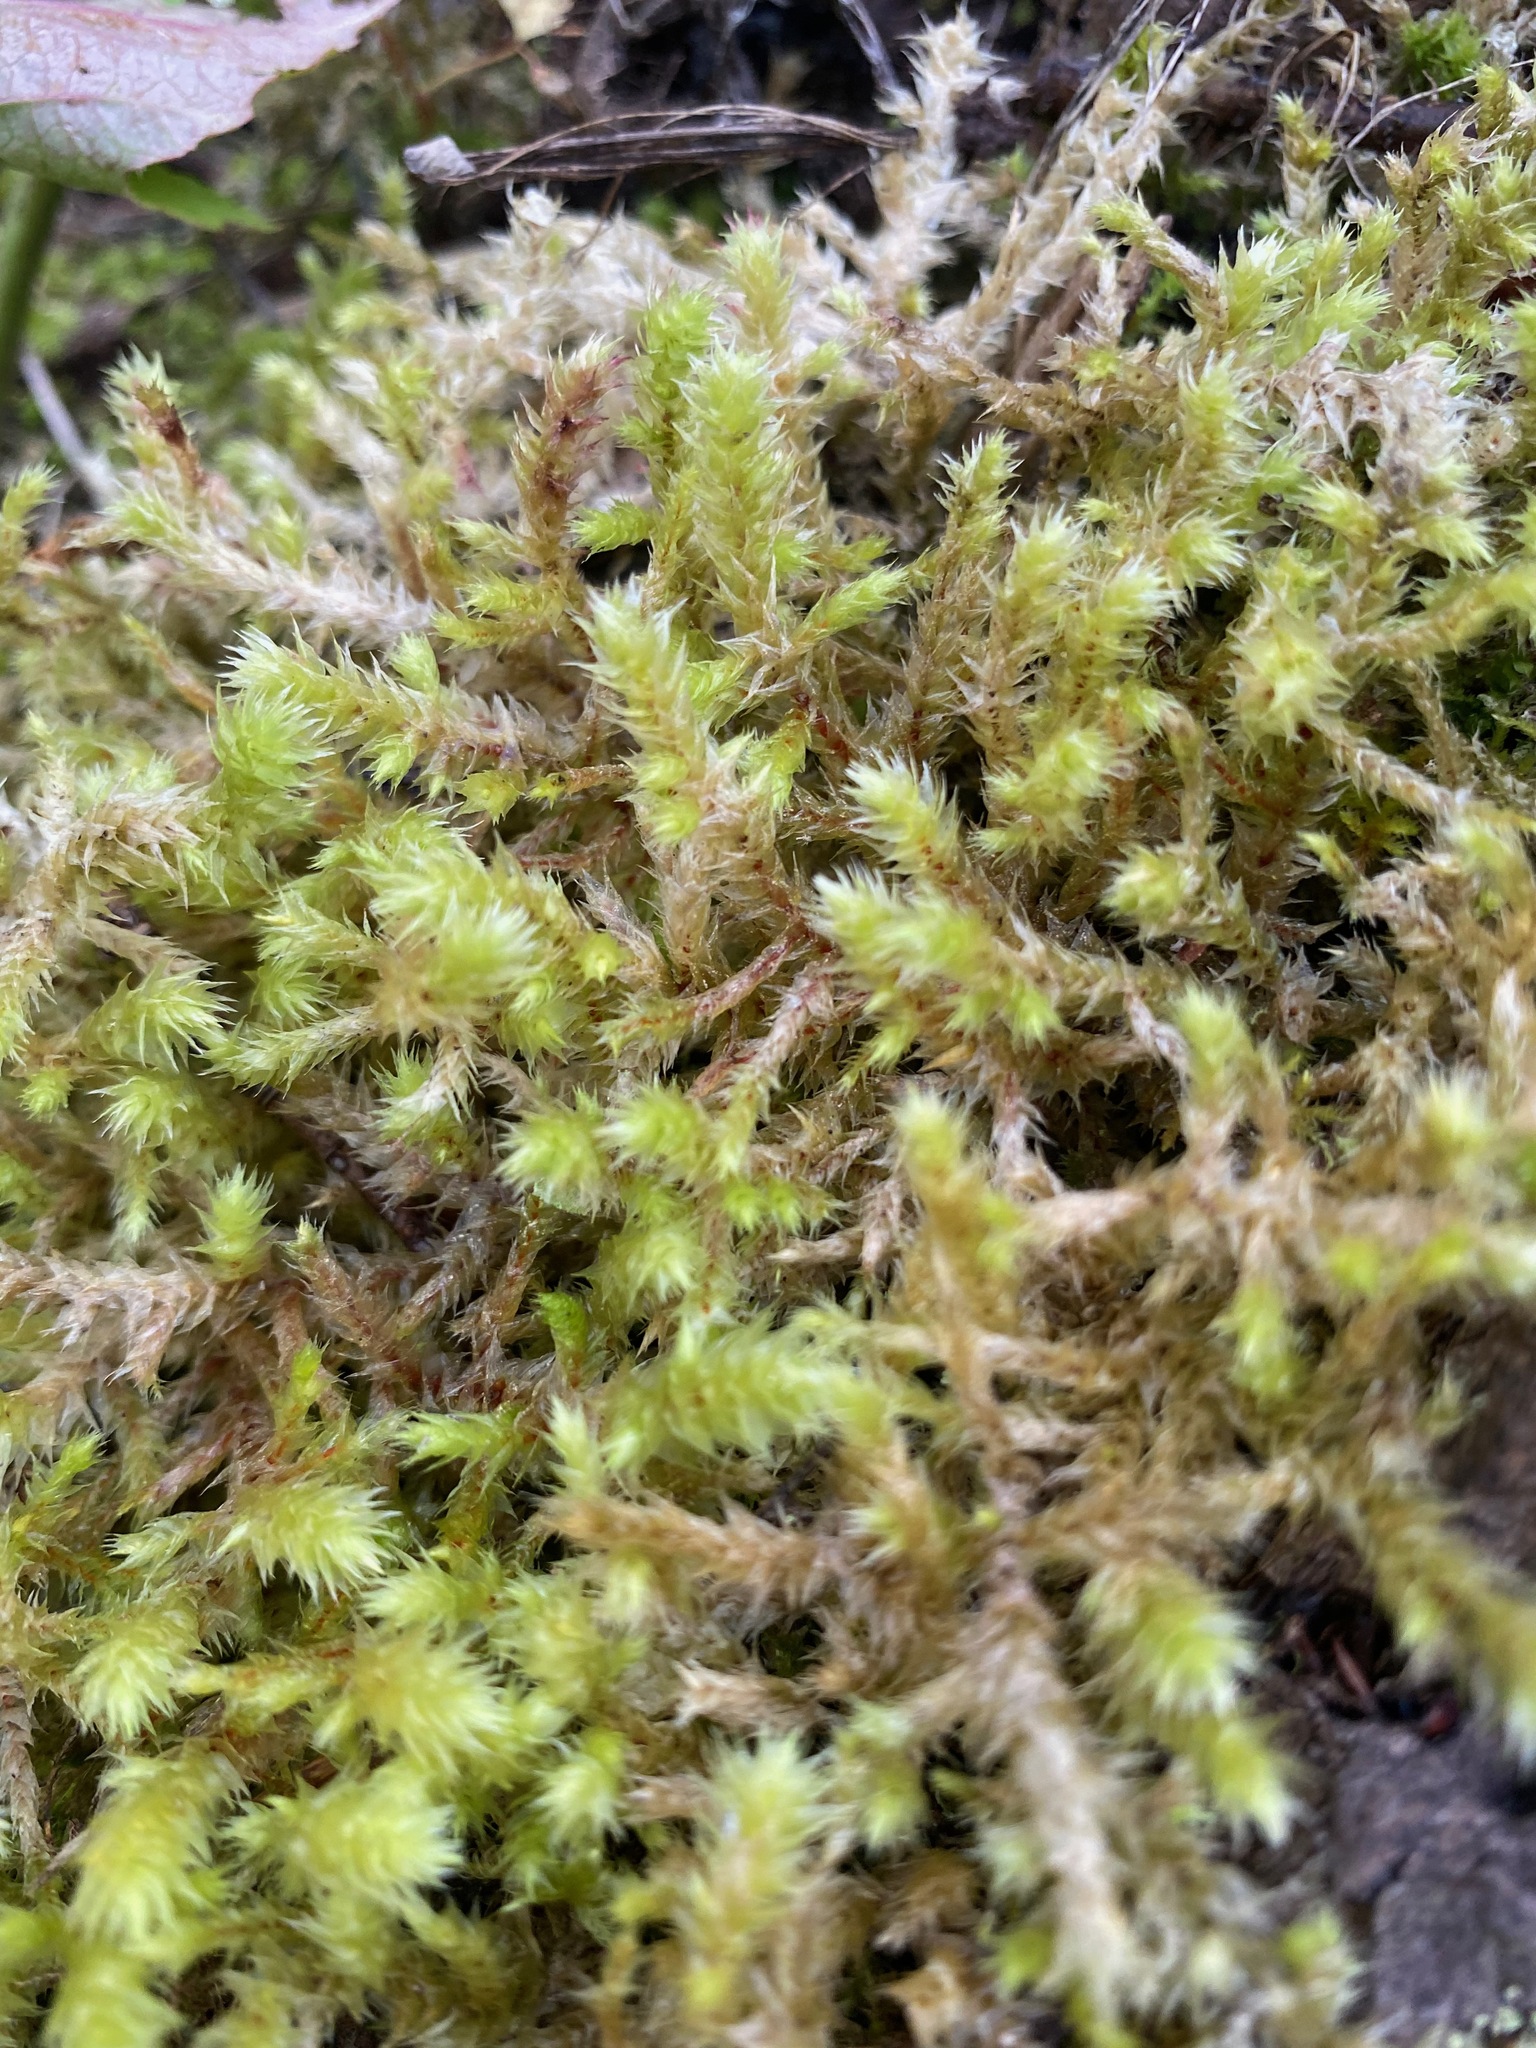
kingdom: Plantae
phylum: Bryophyta
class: Bryopsida
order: Hypnales
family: Hylocomiaceae
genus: Hylocomiadelphus
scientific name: Hylocomiadelphus triquetrus
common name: Rough goose neck moss
